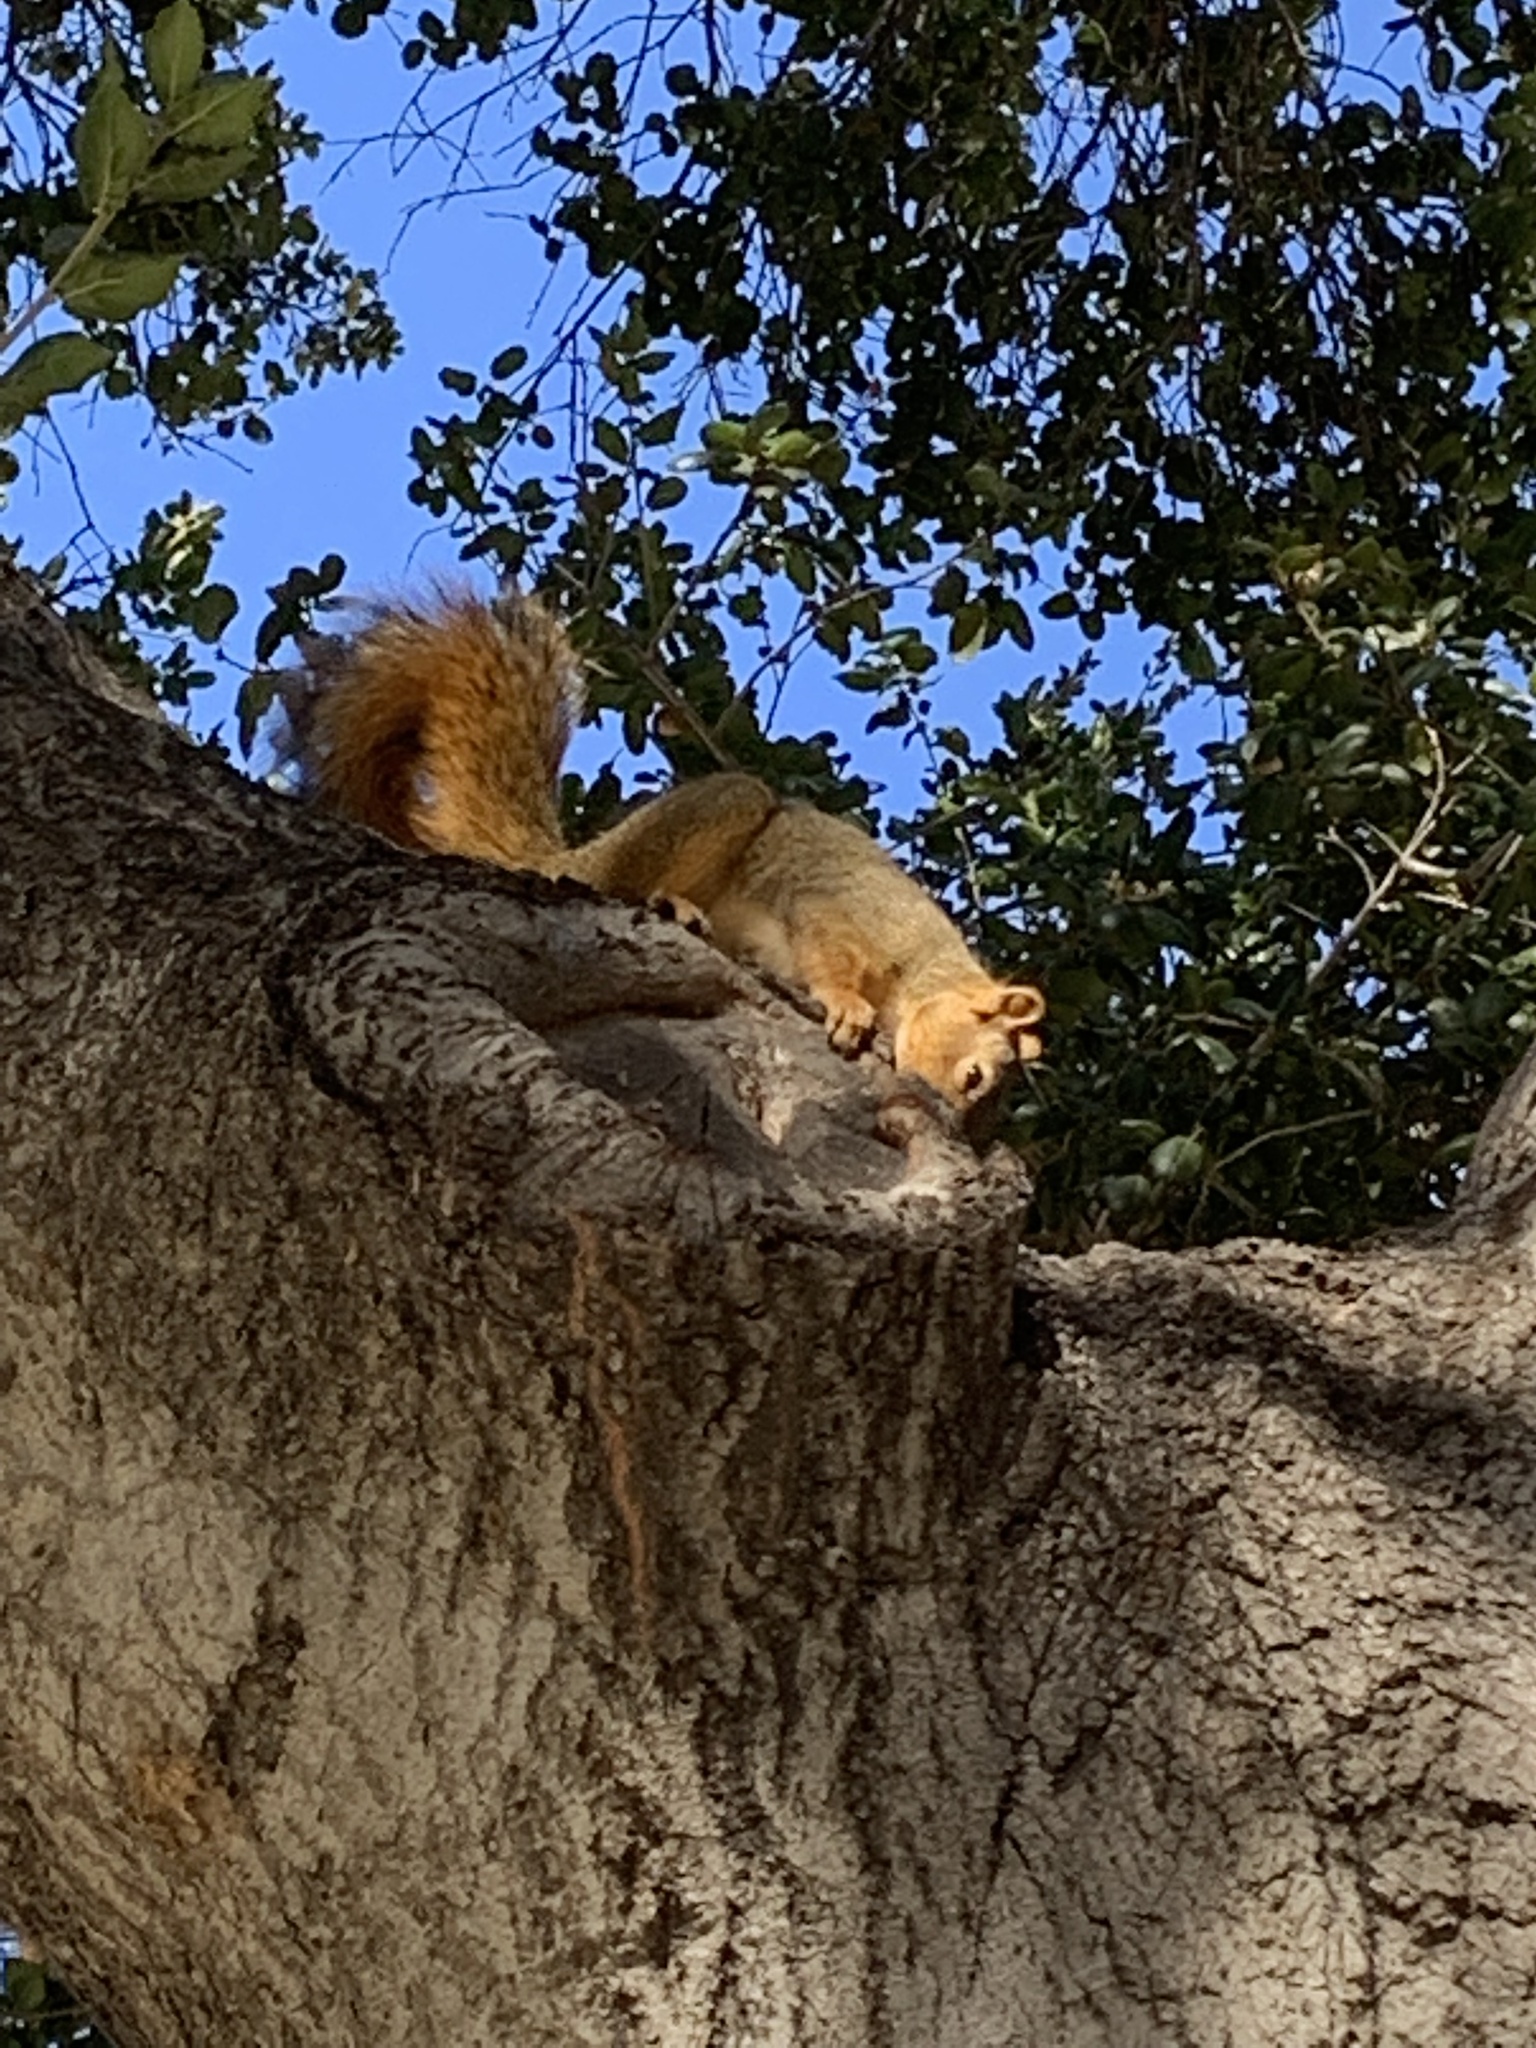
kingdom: Animalia
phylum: Chordata
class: Mammalia
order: Rodentia
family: Sciuridae
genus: Sciurus
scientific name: Sciurus niger
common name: Fox squirrel
